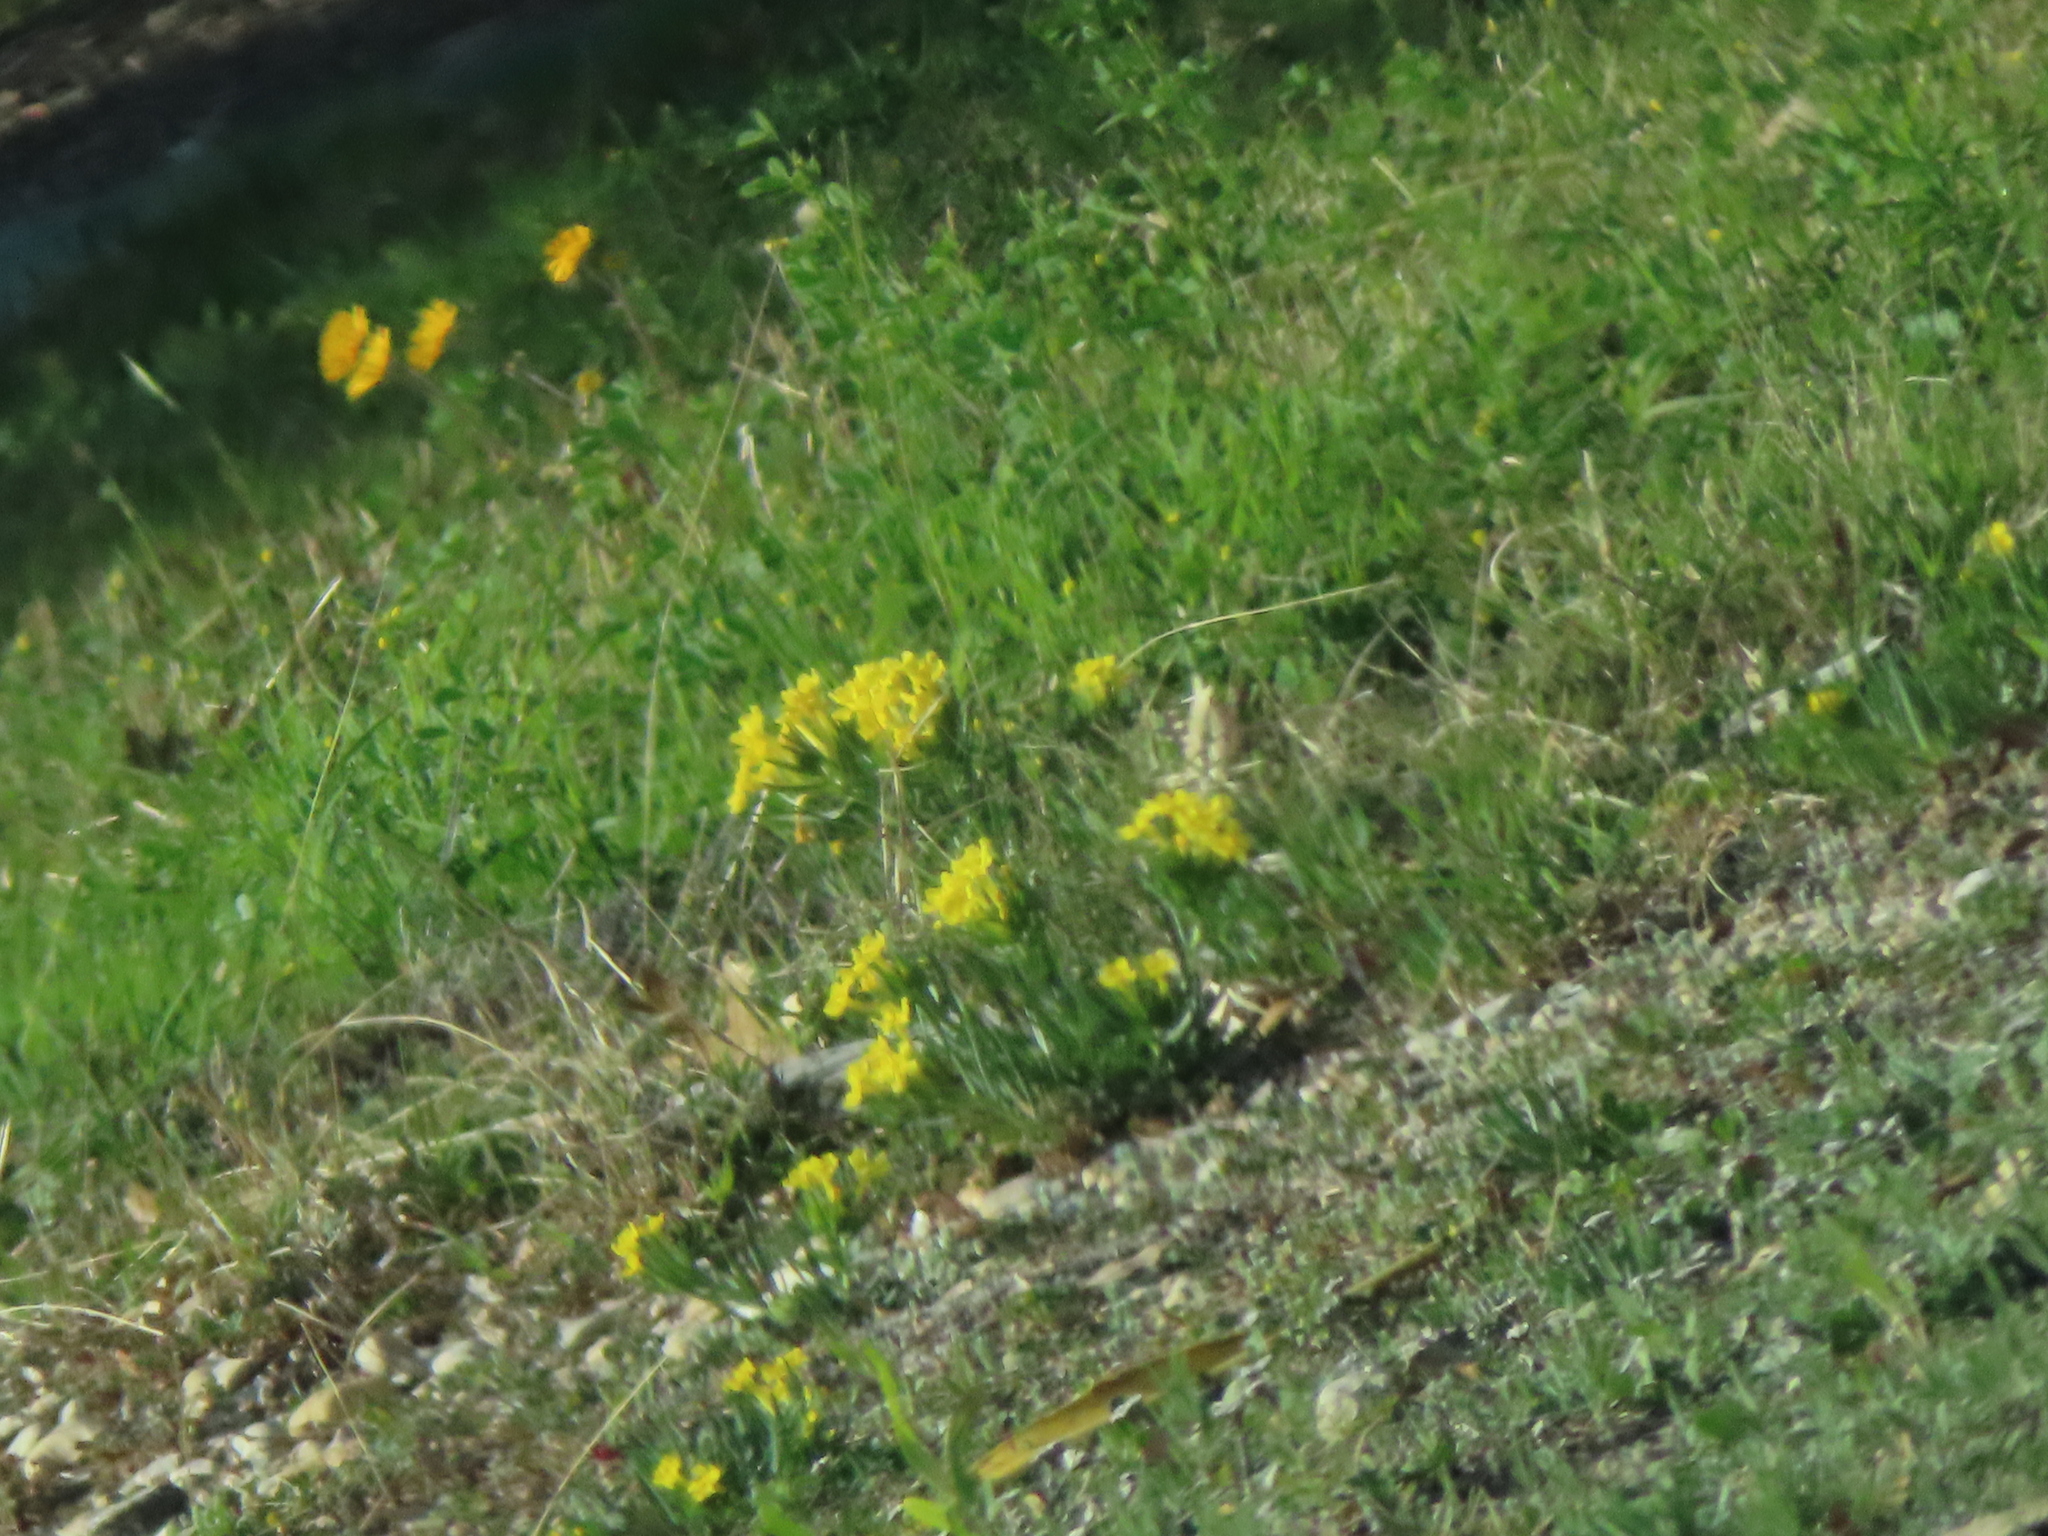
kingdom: Plantae
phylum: Tracheophyta
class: Magnoliopsida
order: Boraginales
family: Boraginaceae
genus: Lithospermum
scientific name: Lithospermum incisum
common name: Fringed gromwell
